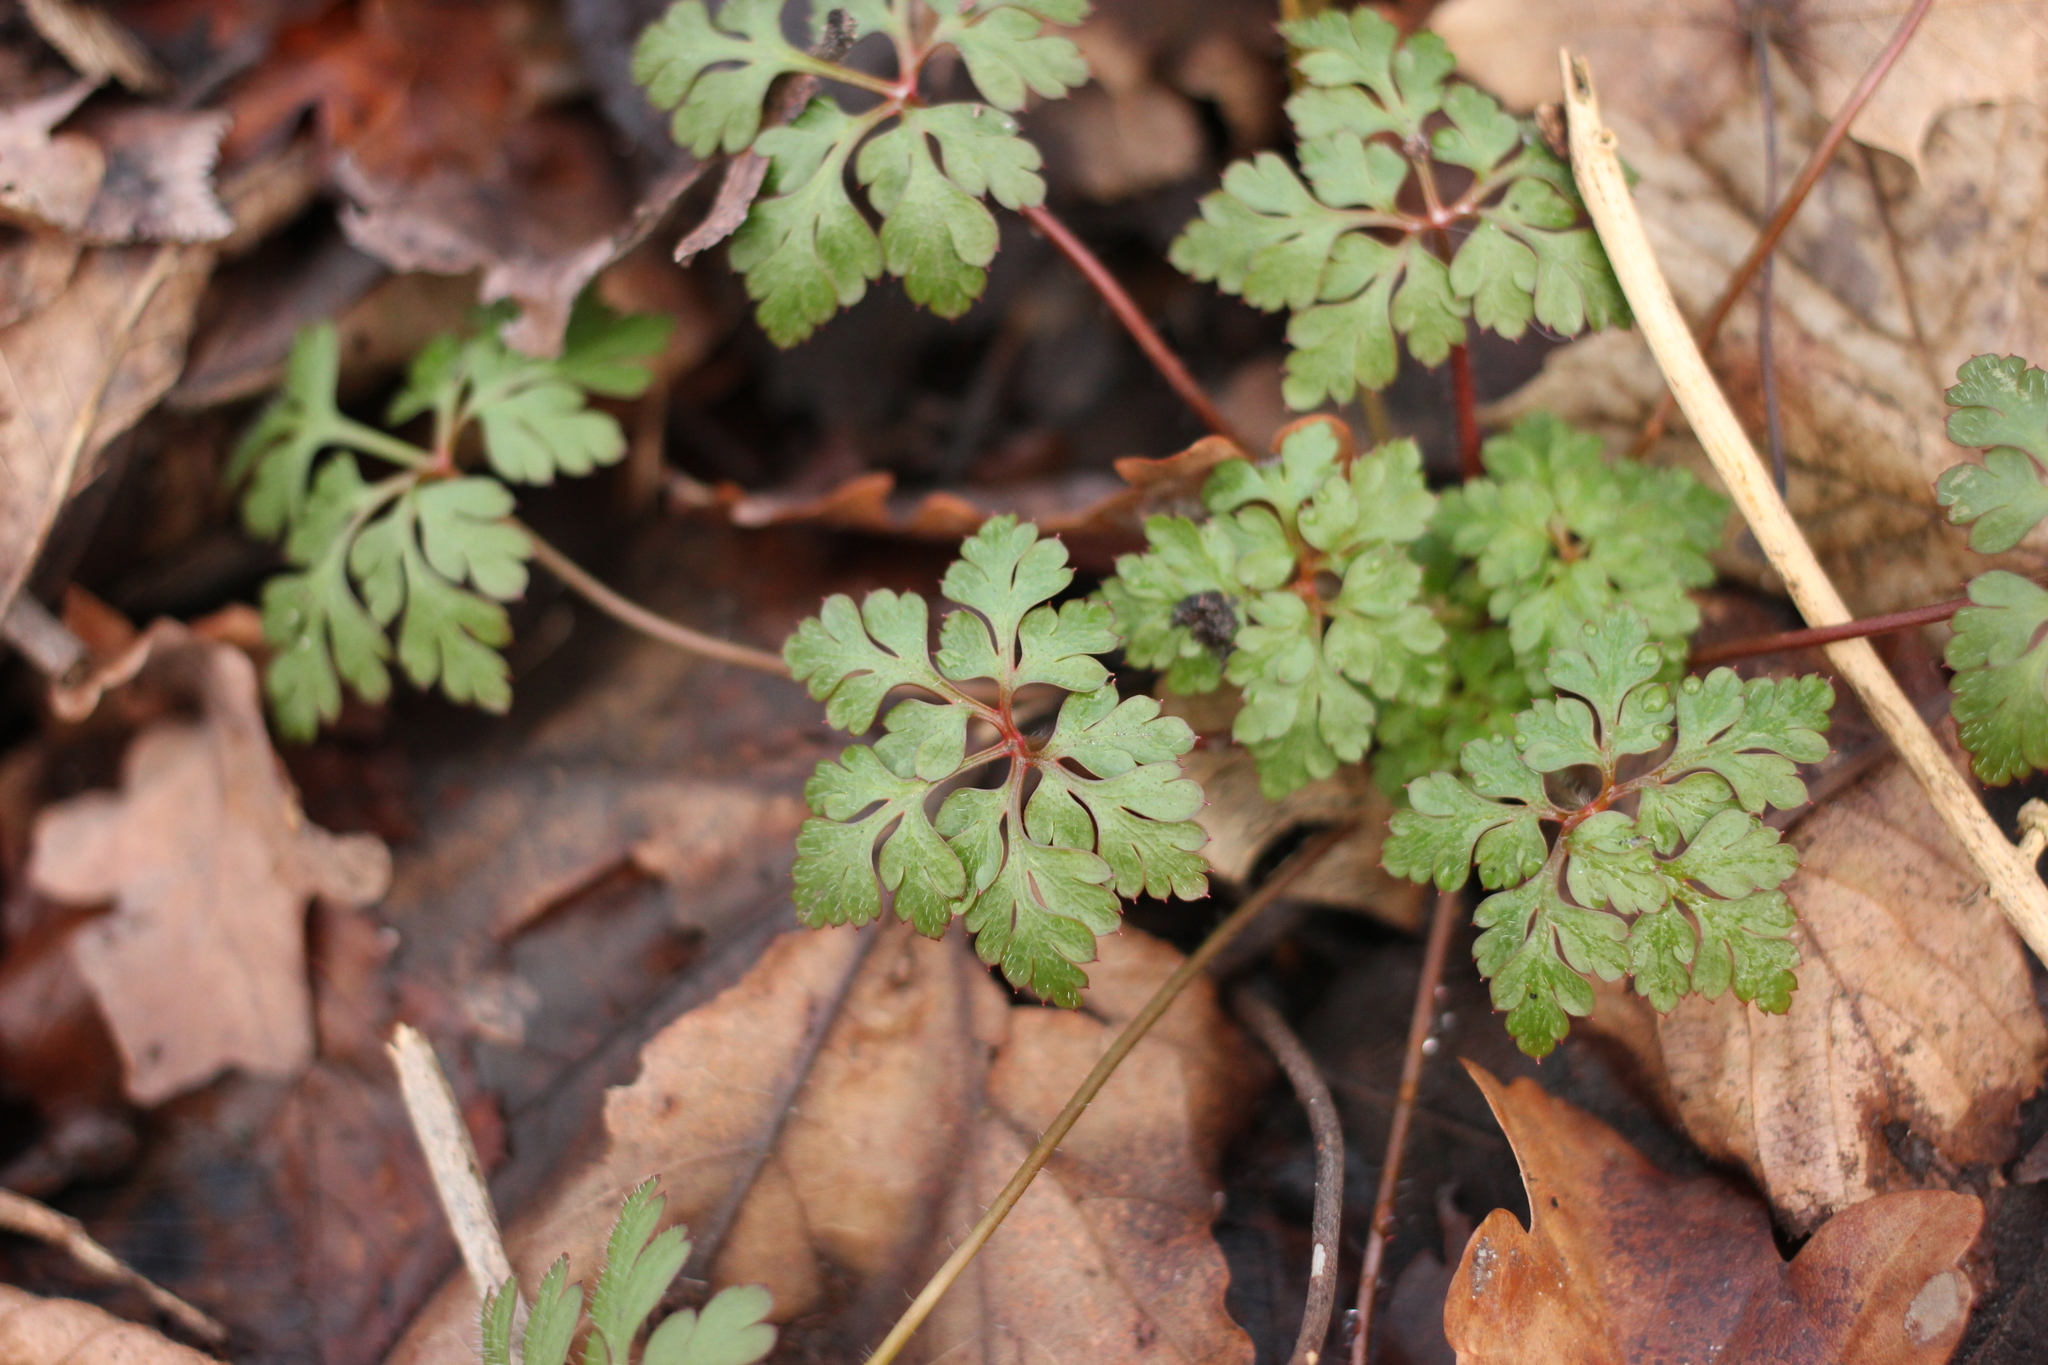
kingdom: Plantae
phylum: Tracheophyta
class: Magnoliopsida
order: Geraniales
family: Geraniaceae
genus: Geranium
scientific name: Geranium robertianum
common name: Herb-robert
